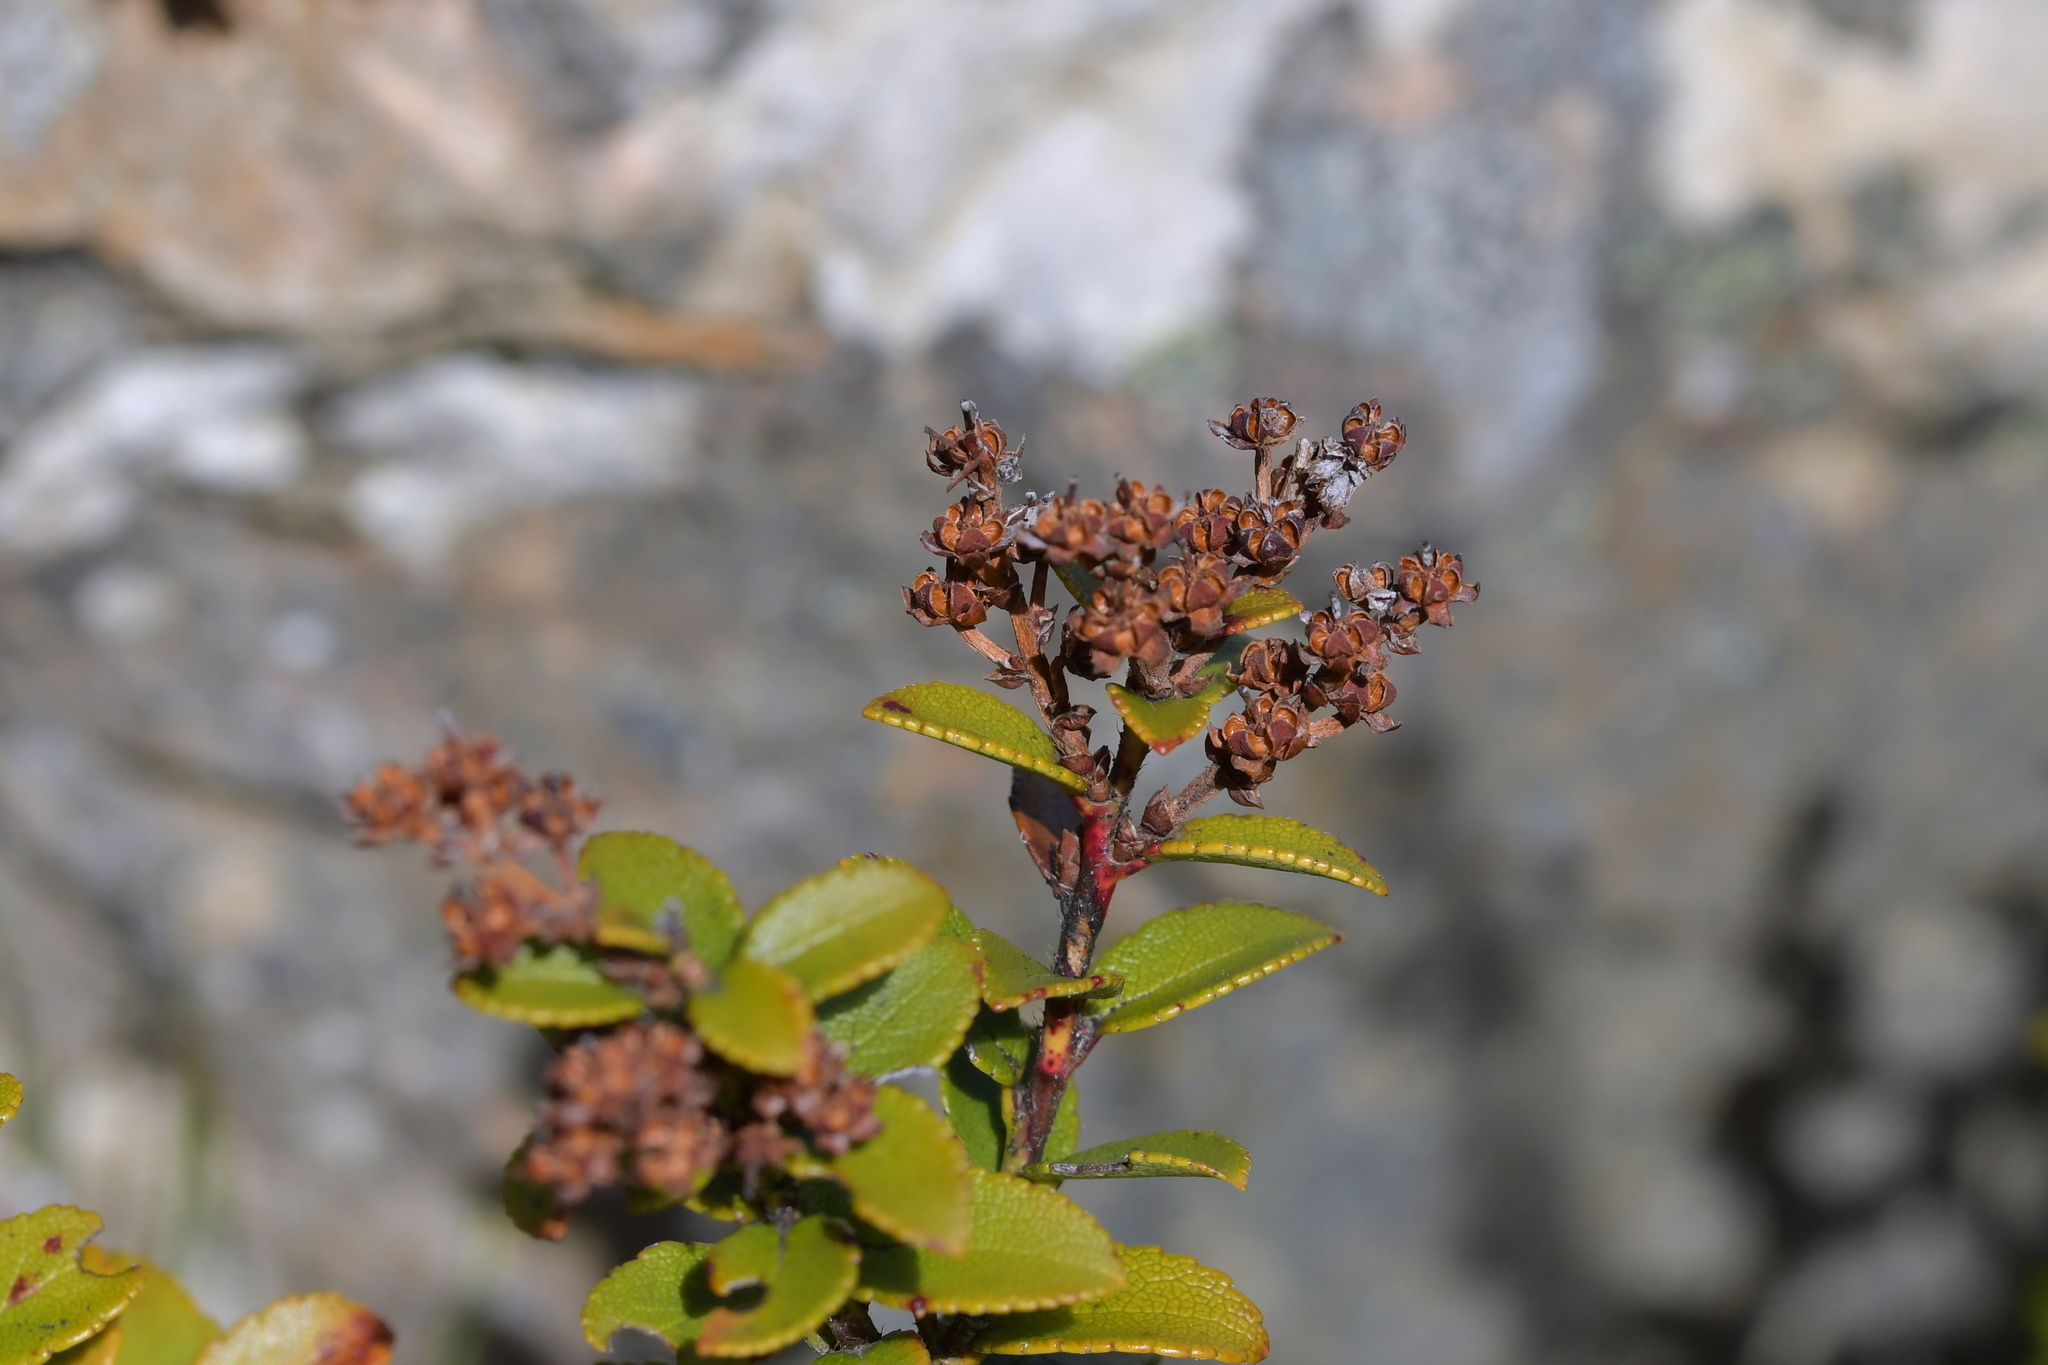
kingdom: Plantae
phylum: Tracheophyta
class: Magnoliopsida
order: Ericales
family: Ericaceae
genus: Gaultheria
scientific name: Gaultheria crassa
